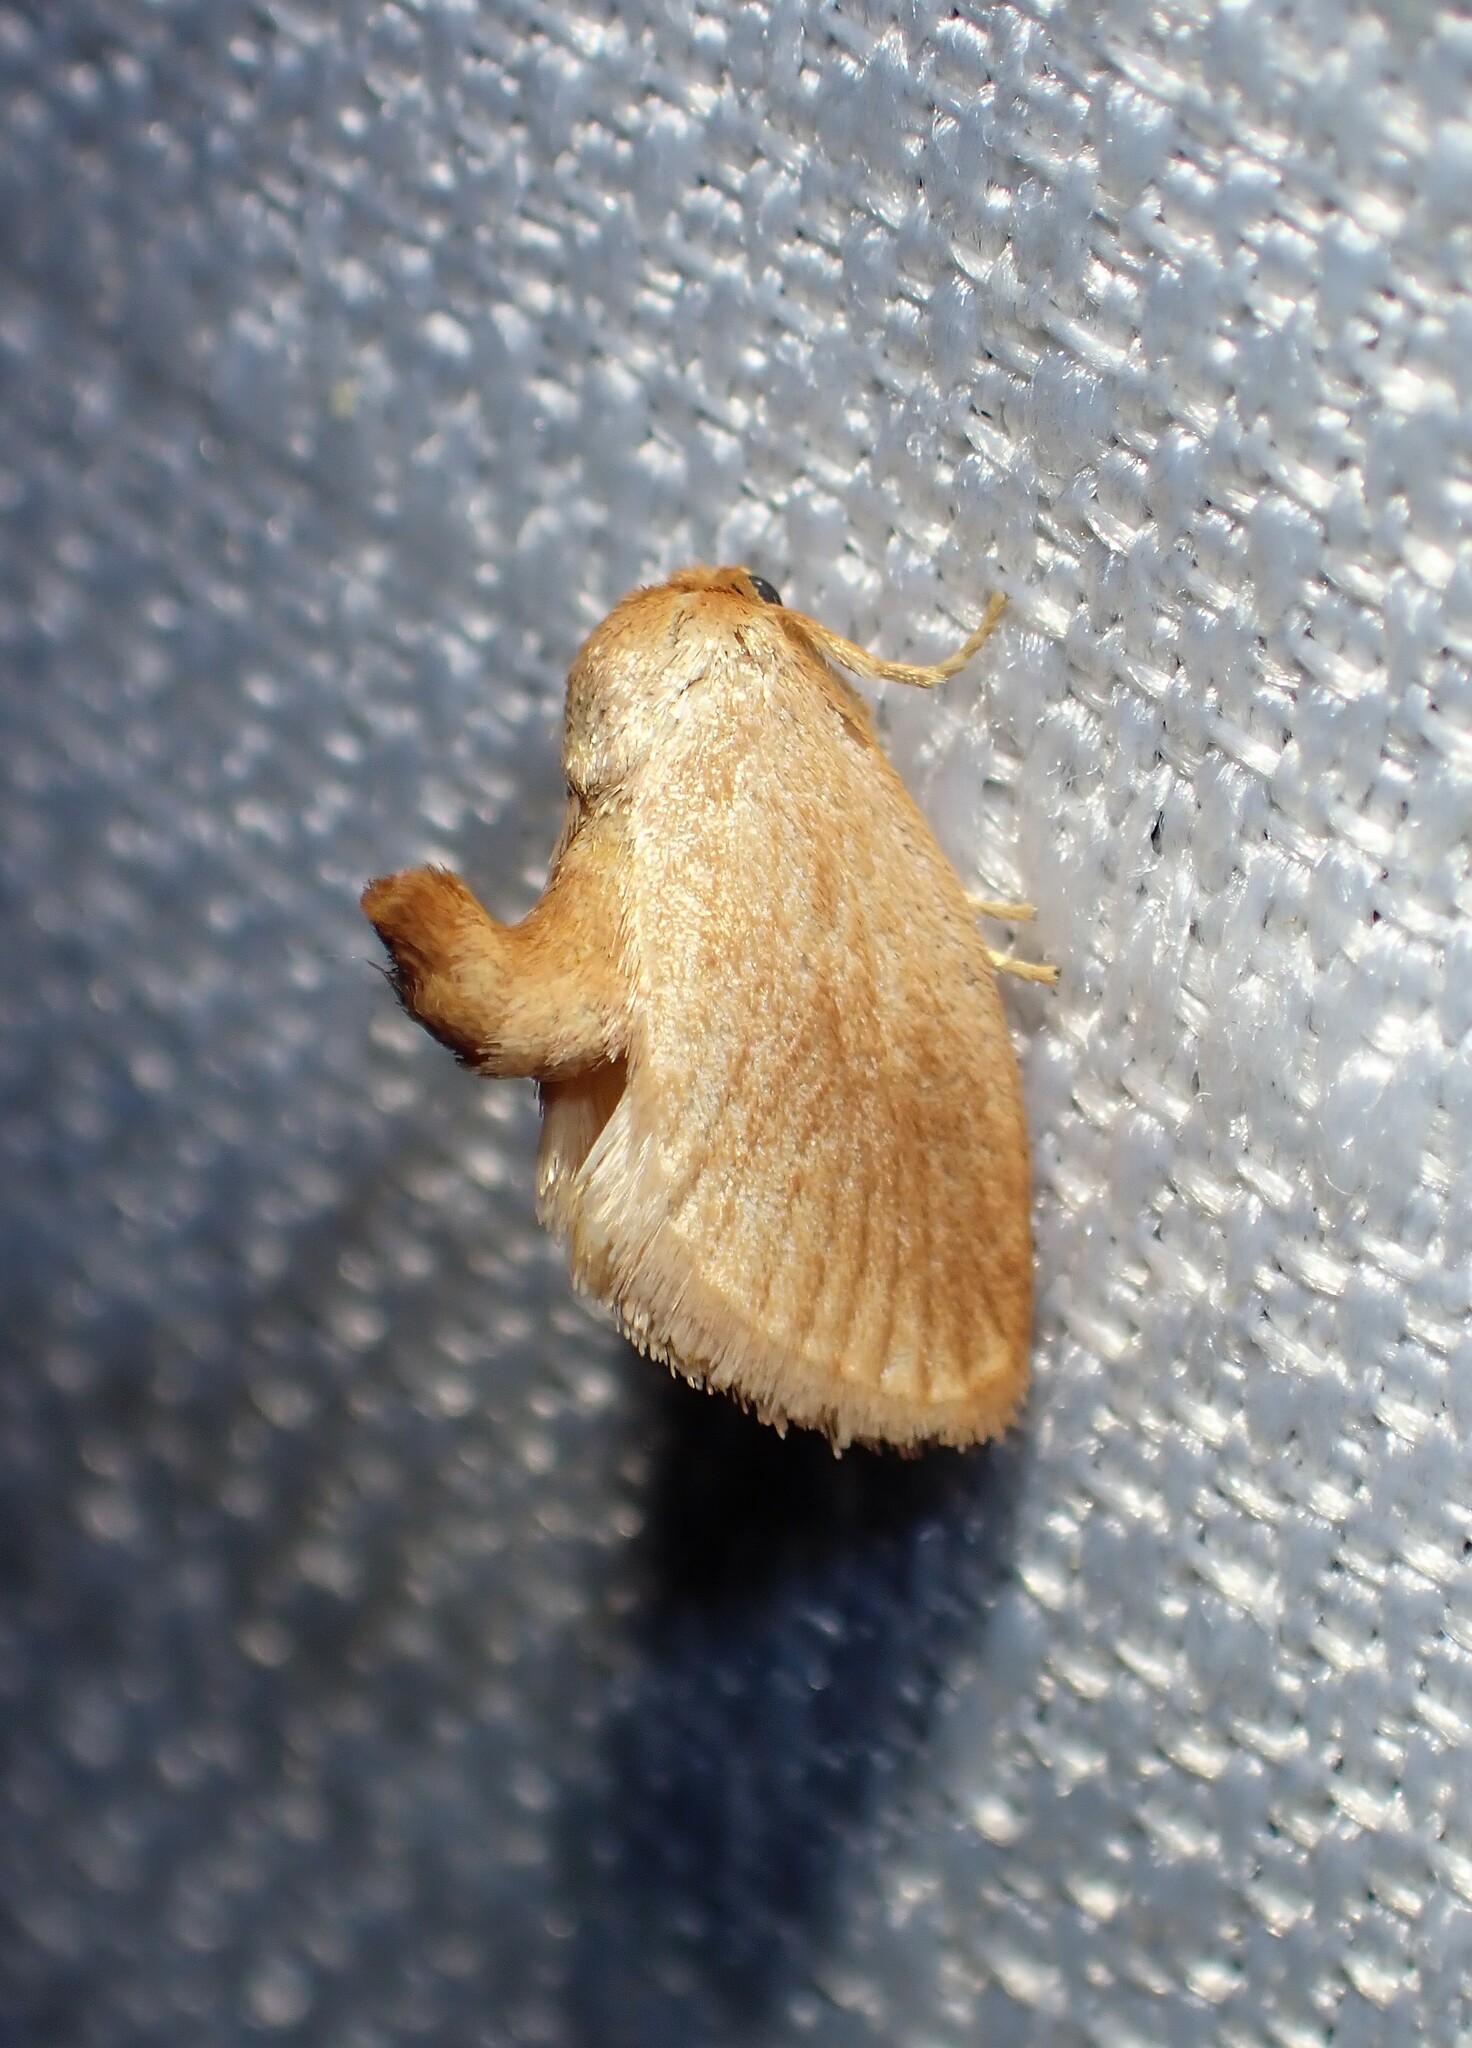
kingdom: Animalia
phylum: Arthropoda
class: Insecta
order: Lepidoptera
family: Limacodidae
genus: Tortricidia
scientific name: Tortricidia testacea
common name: Early button slug moth
